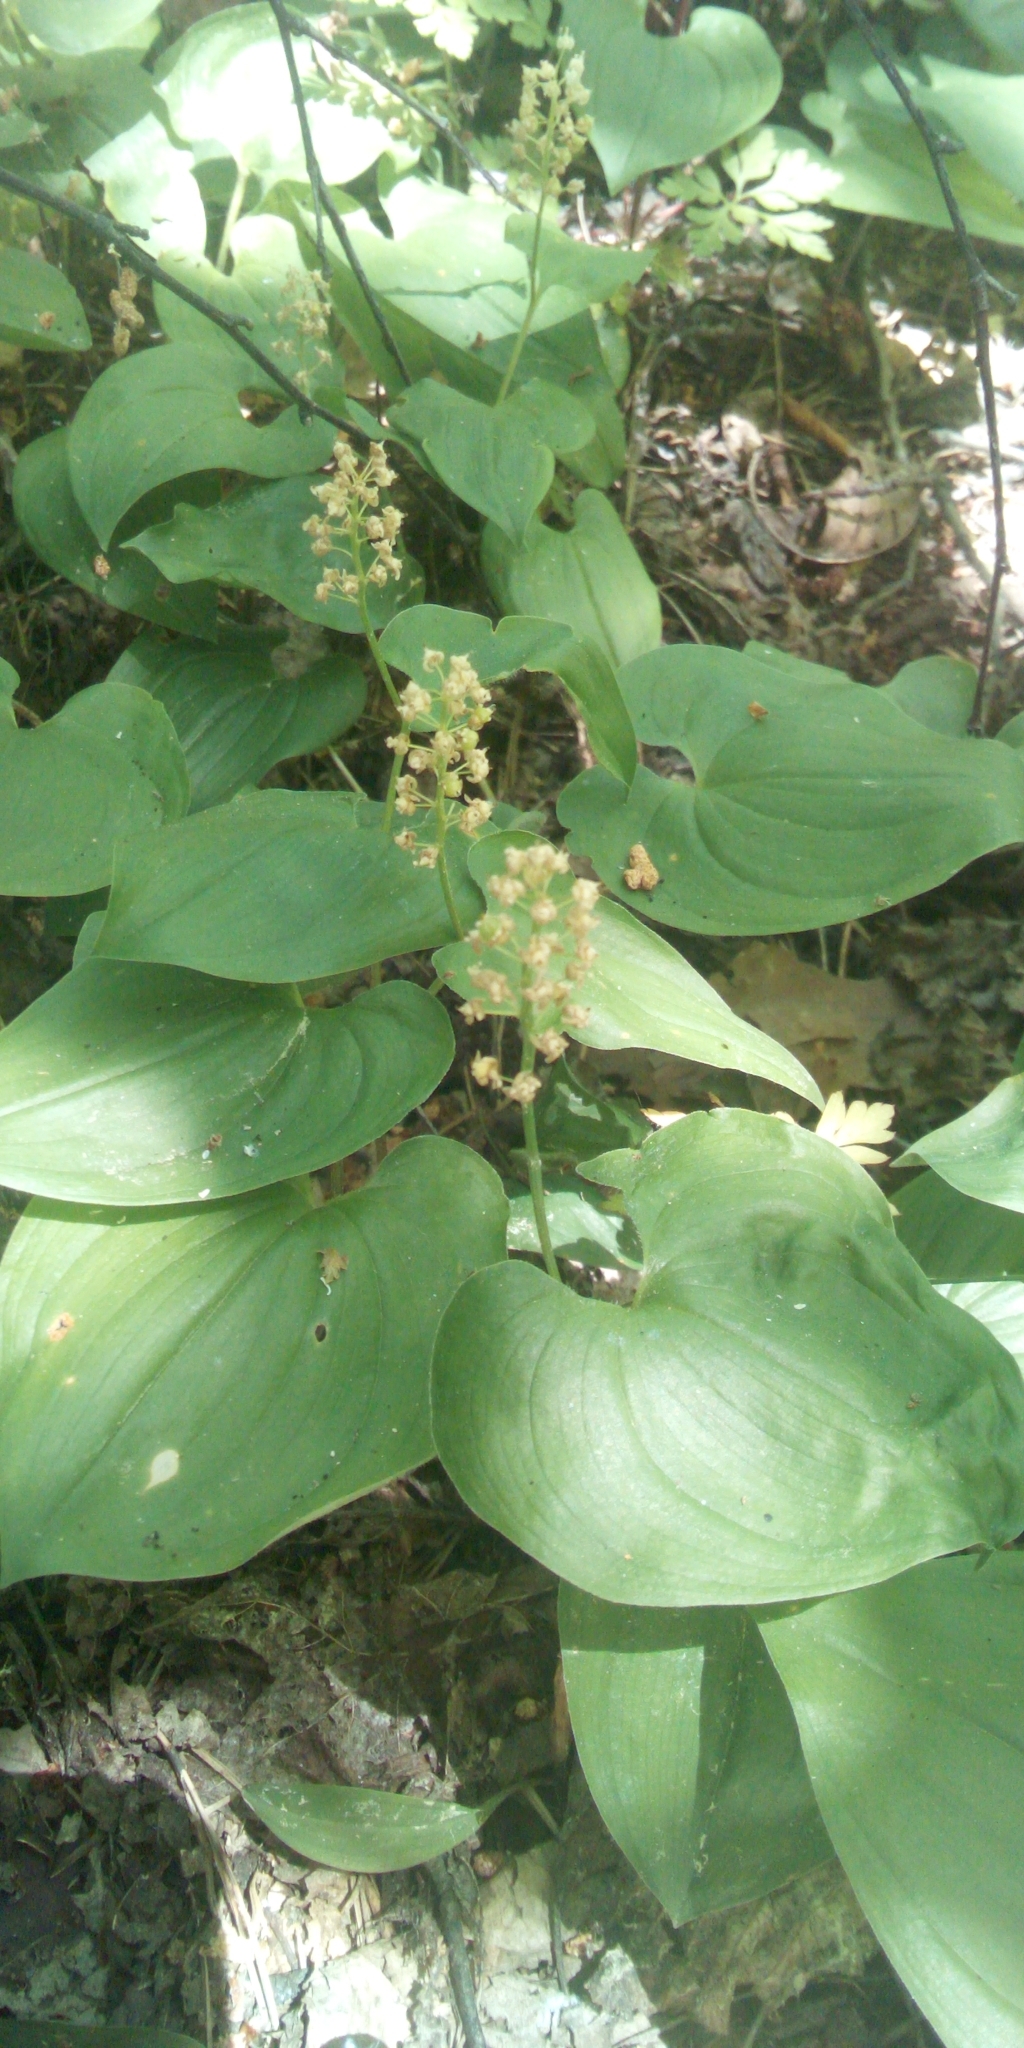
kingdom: Plantae
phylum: Tracheophyta
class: Liliopsida
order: Asparagales
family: Asparagaceae
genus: Maianthemum
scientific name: Maianthemum bifolium
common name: May lily
